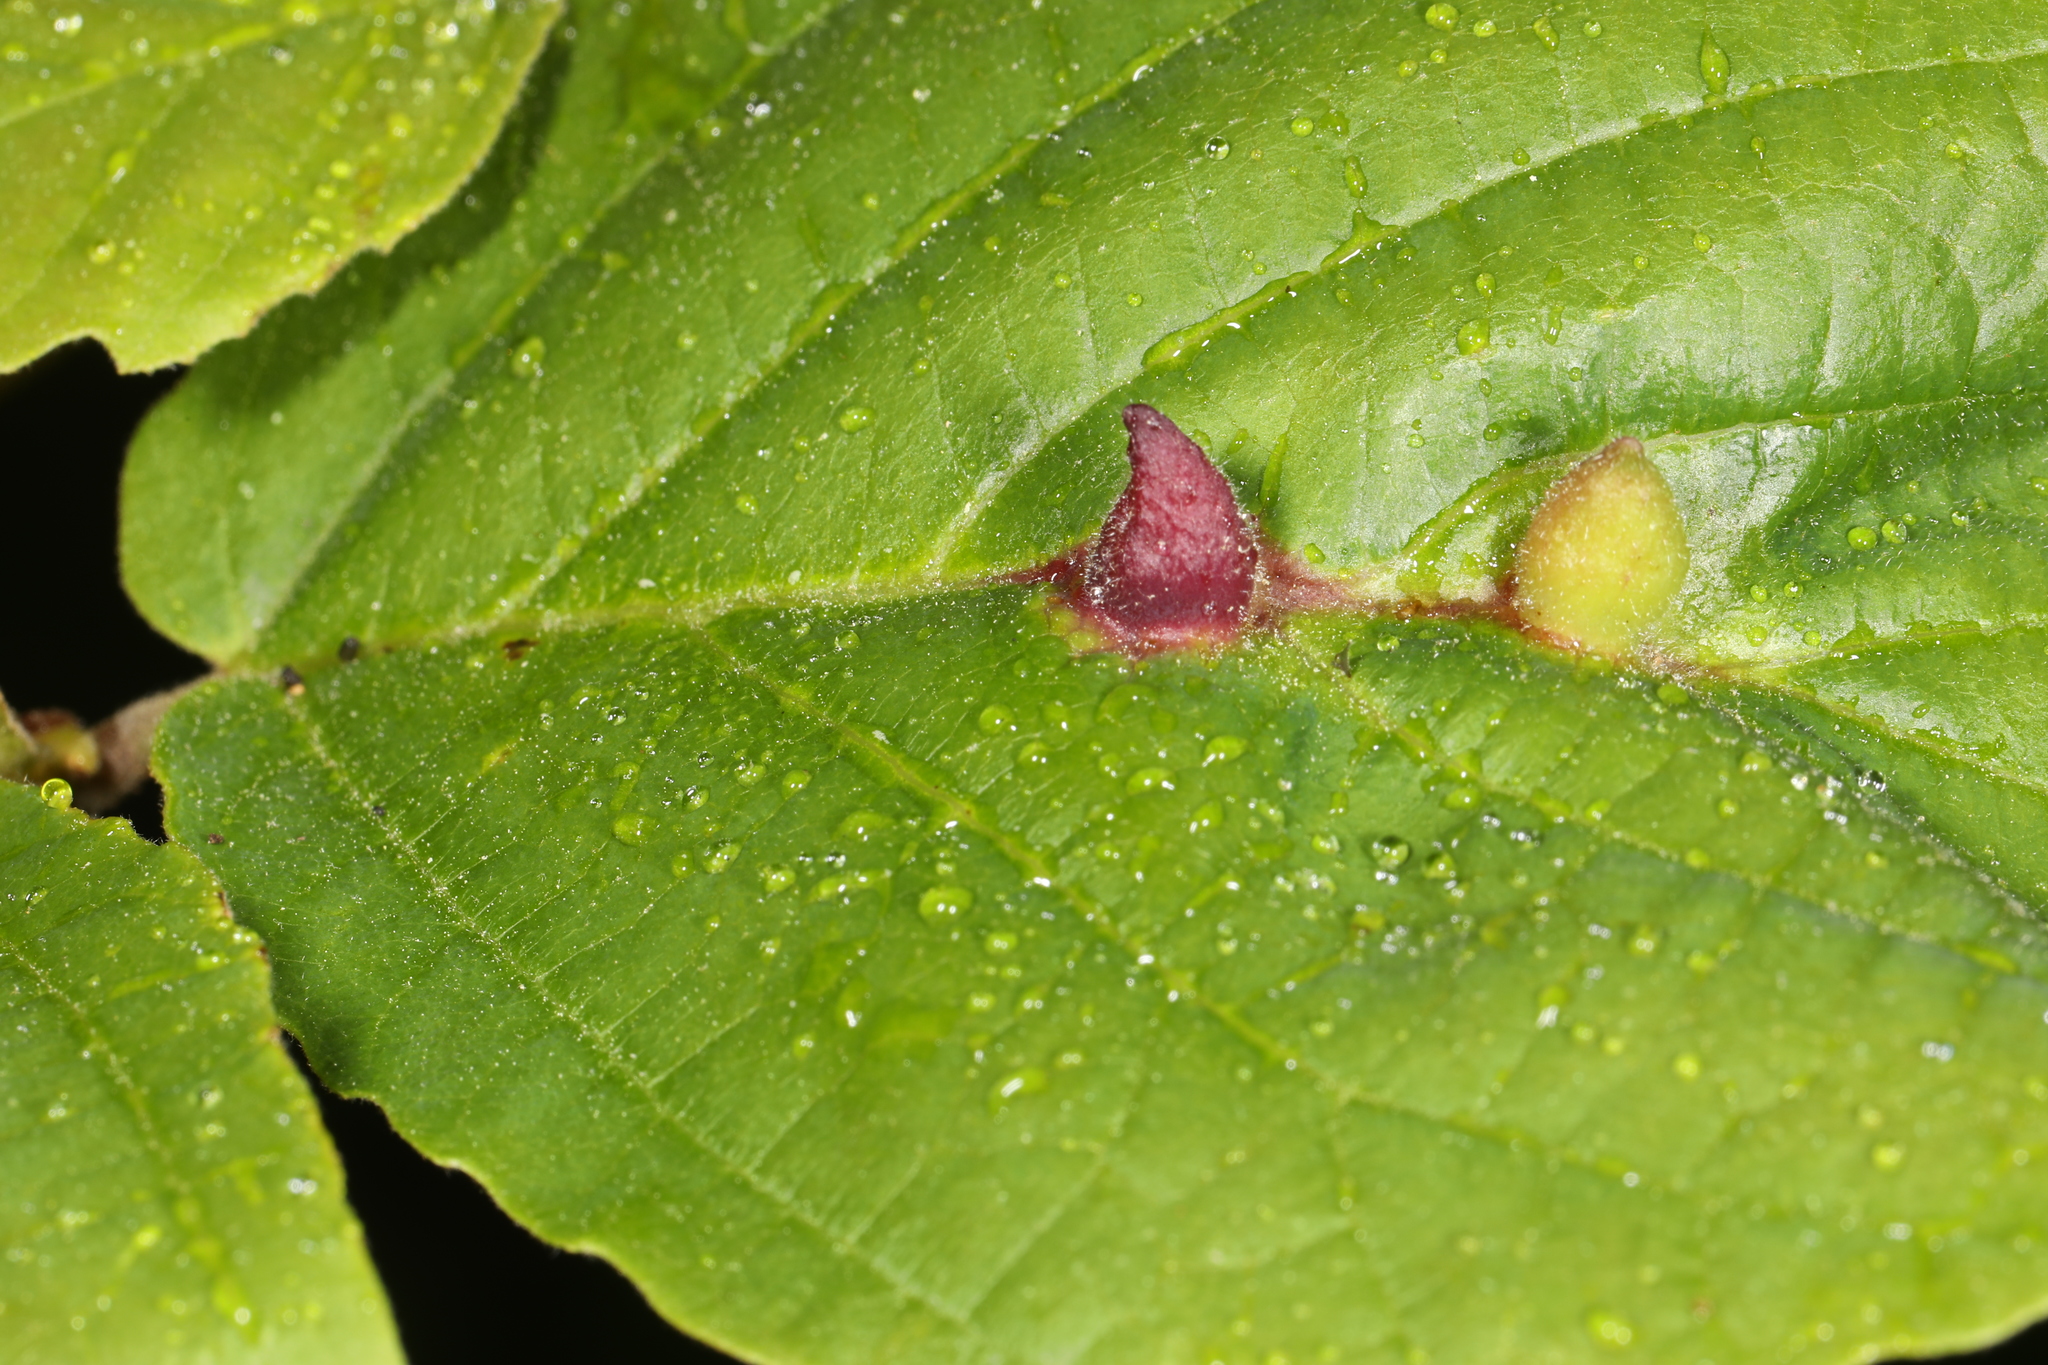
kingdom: Animalia
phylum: Arthropoda
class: Insecta
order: Hemiptera
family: Aphididae
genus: Hormaphis
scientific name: Hormaphis hamamelidis
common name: Witch-hazel cone gall aphid
